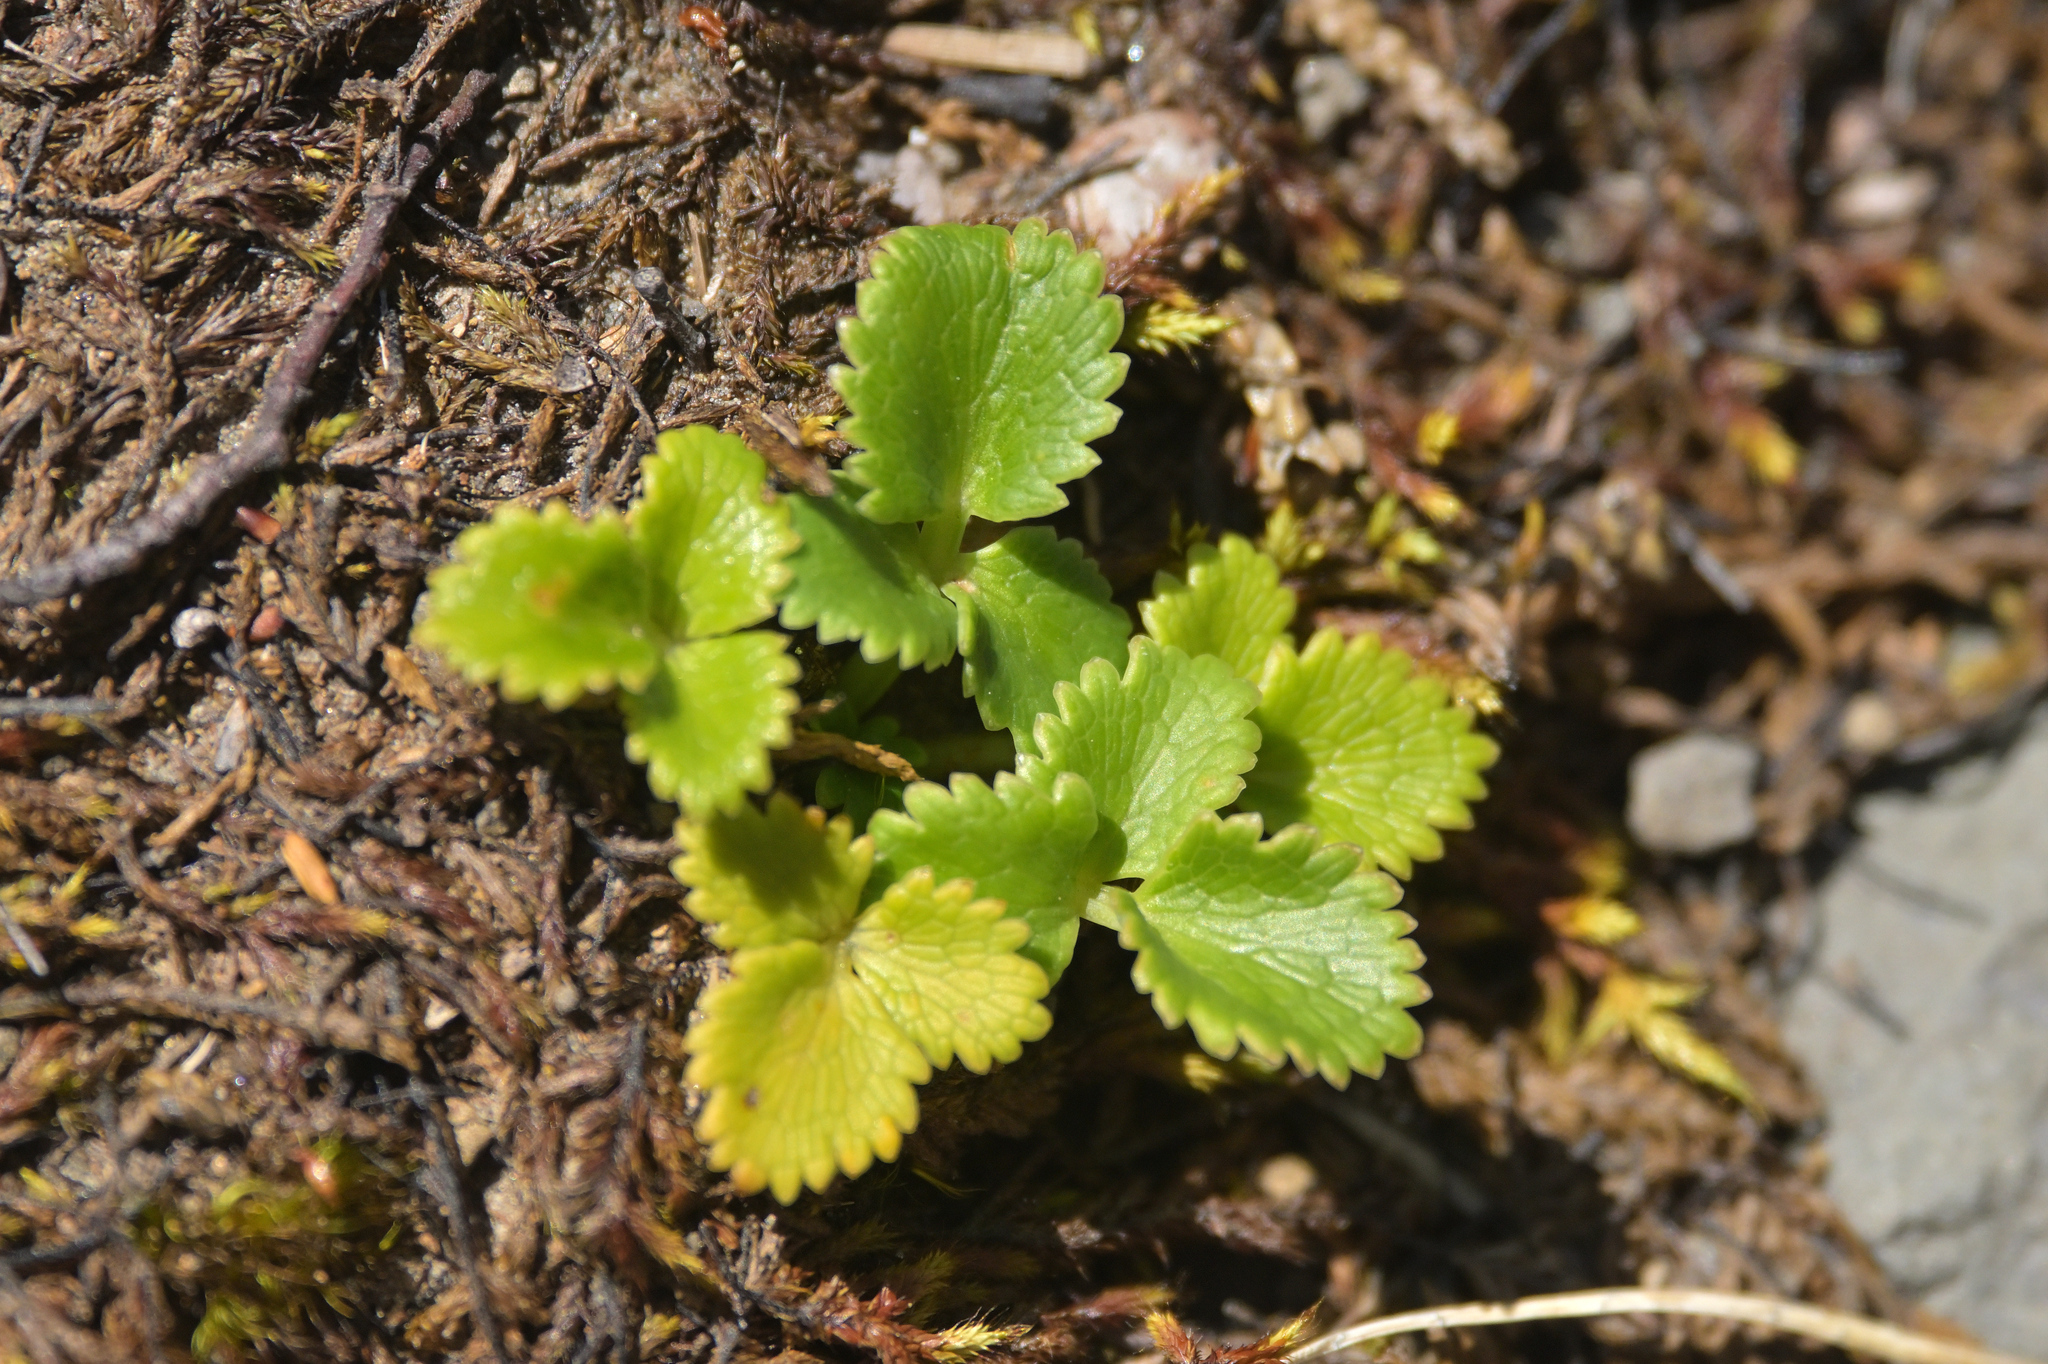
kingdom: Plantae
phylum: Tracheophyta
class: Magnoliopsida
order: Apiales
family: Apiaceae
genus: Gingidia
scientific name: Gingidia montana
